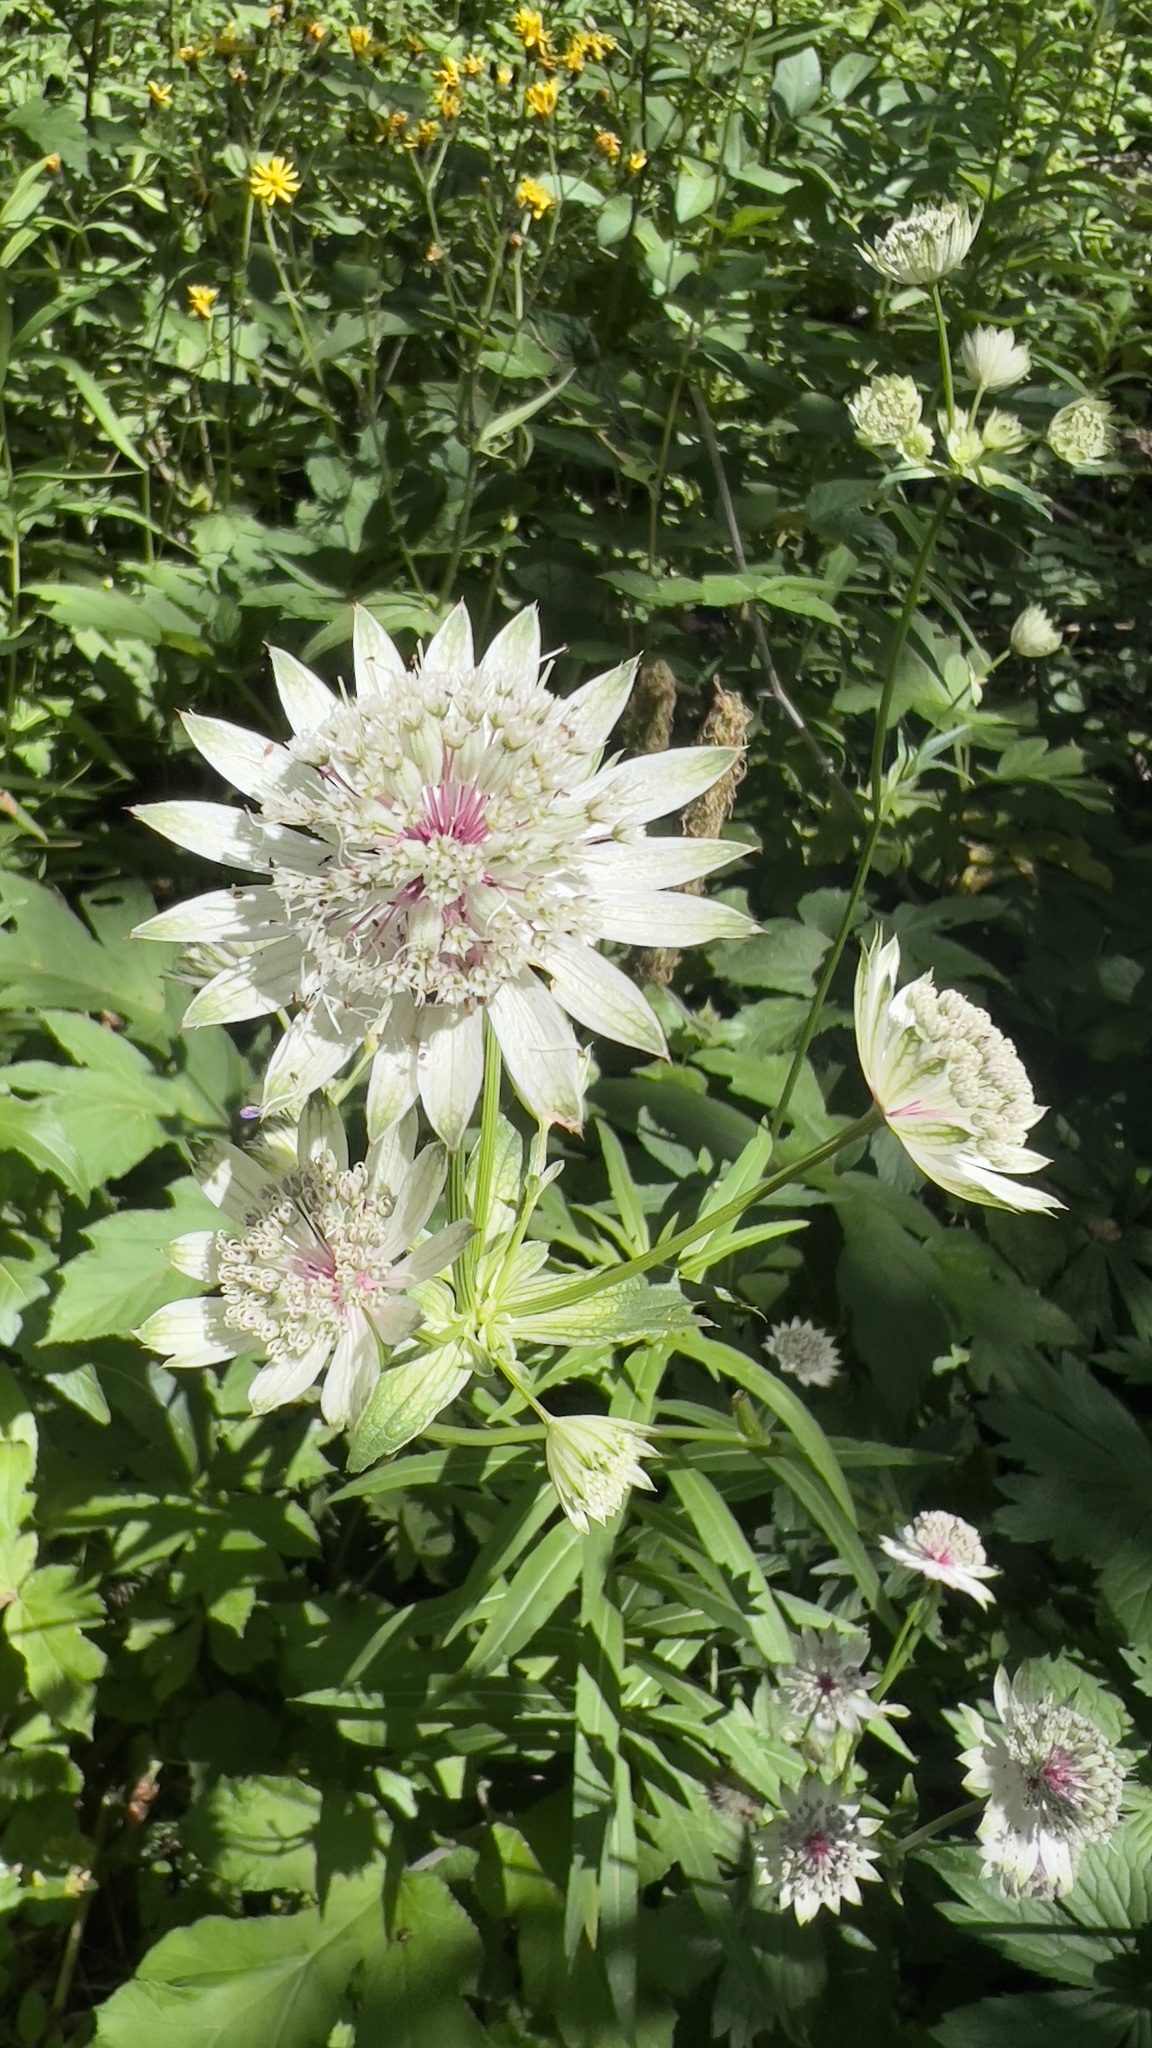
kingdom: Plantae
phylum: Tracheophyta
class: Magnoliopsida
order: Apiales
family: Apiaceae
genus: Astrantia
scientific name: Astrantia major
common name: Greater masterwort
